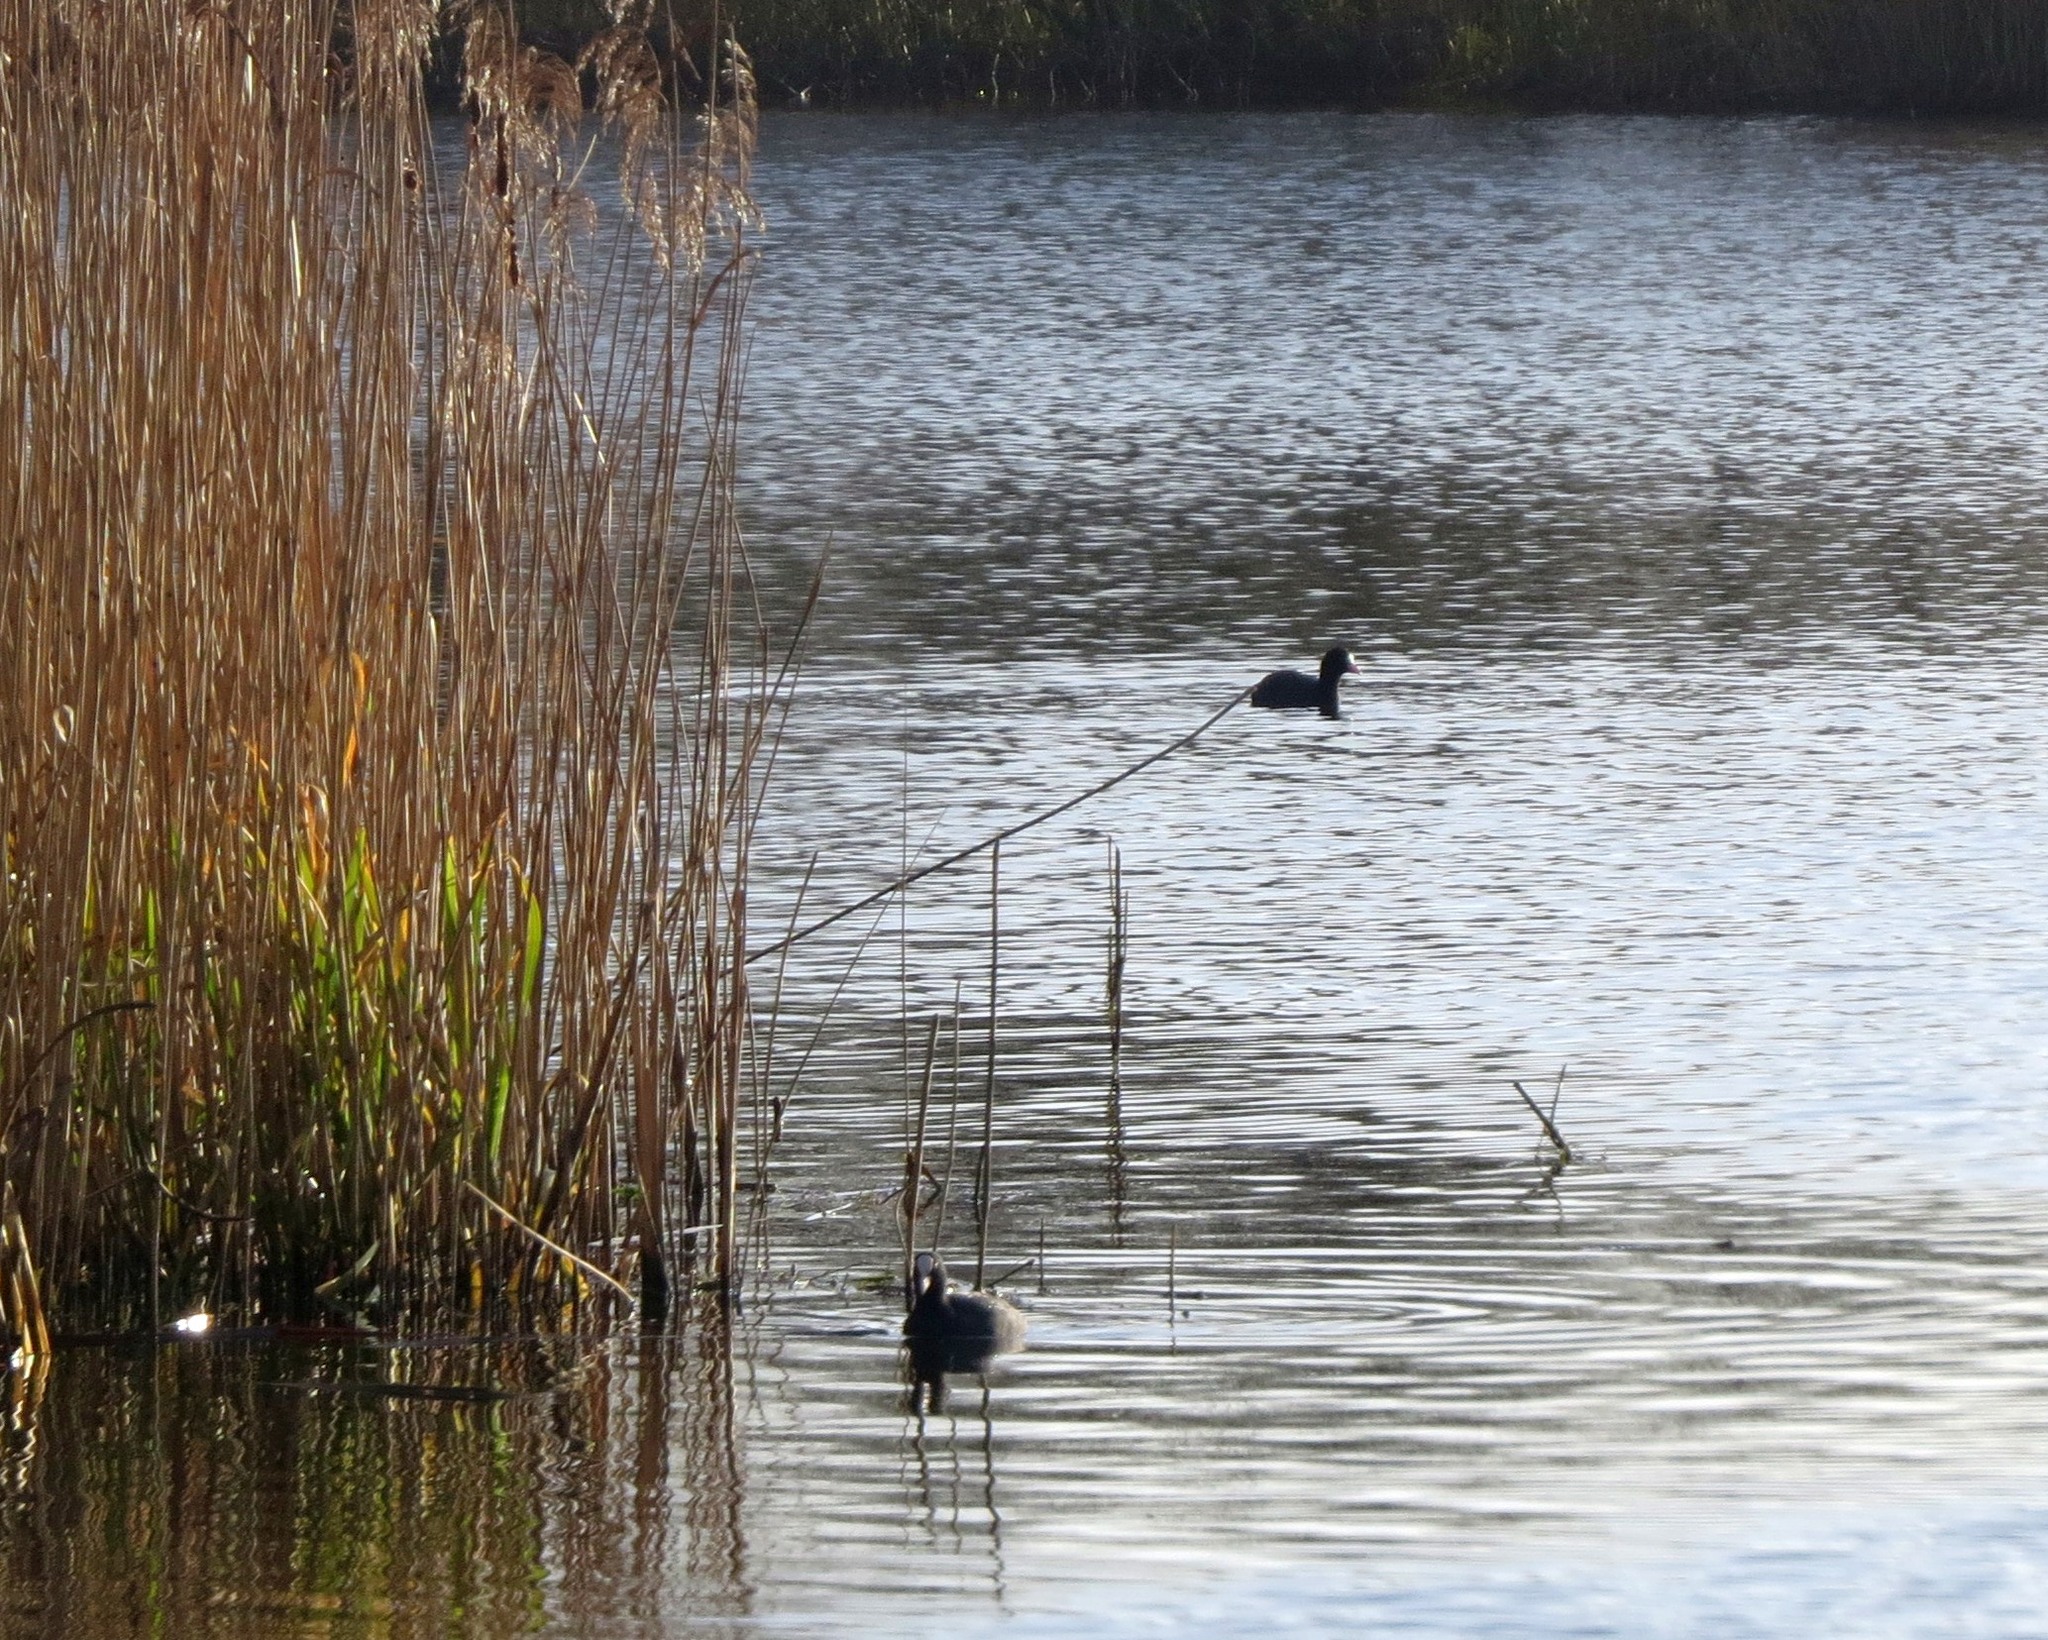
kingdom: Animalia
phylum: Chordata
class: Aves
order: Gruiformes
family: Rallidae
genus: Fulica
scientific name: Fulica atra
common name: Eurasian coot
